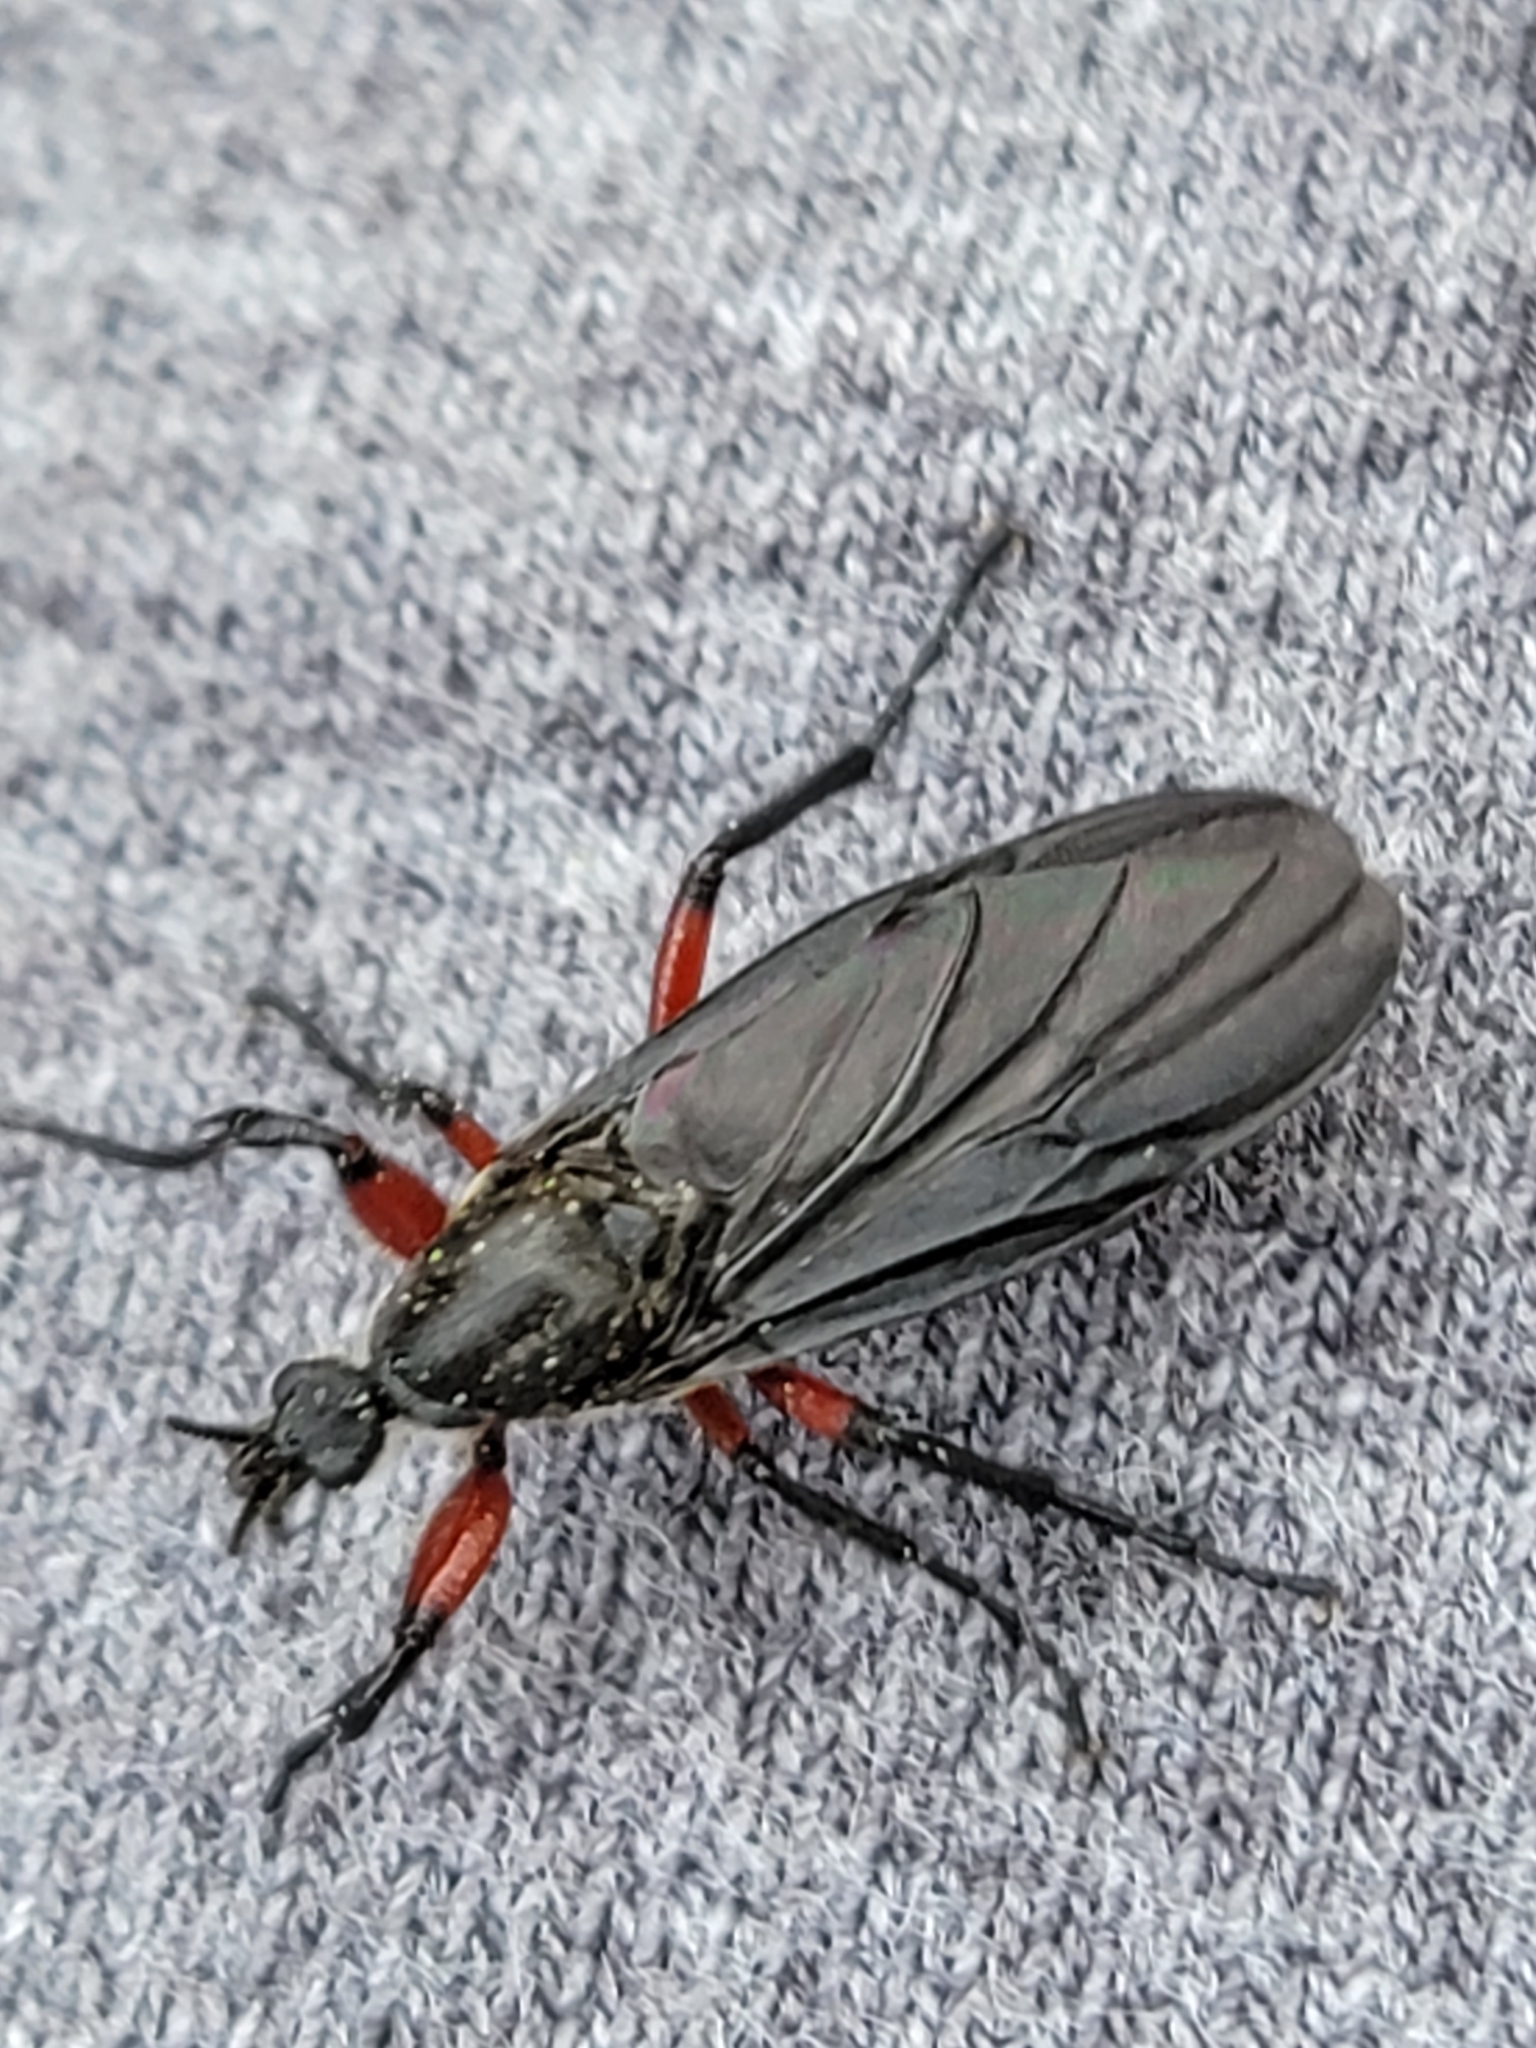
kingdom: Animalia
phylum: Arthropoda
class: Insecta
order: Diptera
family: Bibionidae
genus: Bibio
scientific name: Bibio femoratus
